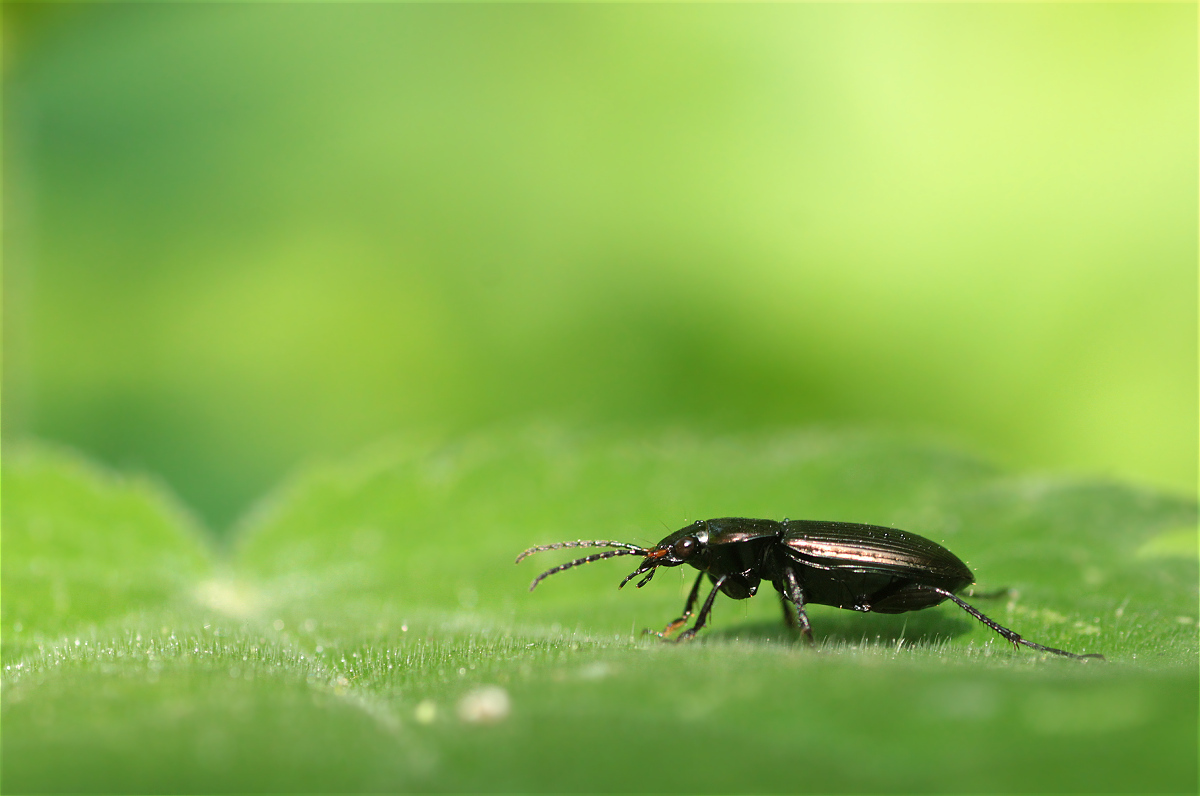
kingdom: Animalia
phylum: Arthropoda
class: Insecta
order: Coleoptera
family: Carabidae
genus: Poecilus
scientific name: Poecilus cupreus
